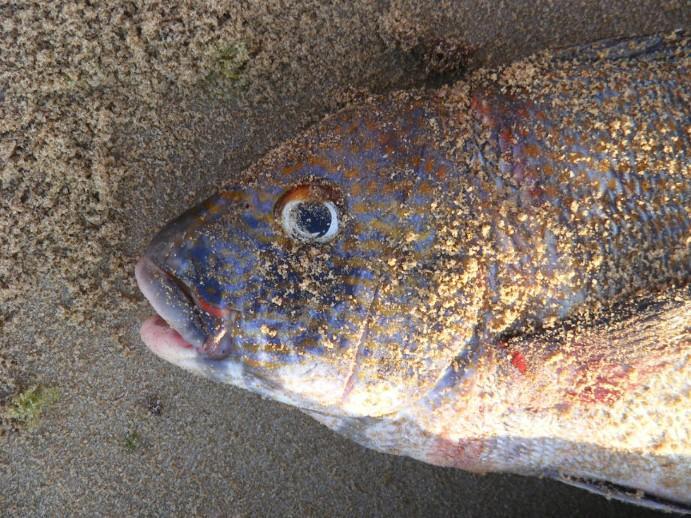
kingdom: Animalia
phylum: Chordata
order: Perciformes
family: Haemulidae
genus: Plectorhinchus
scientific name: Plectorhinchus flavomaculatus
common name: Netted sweetlips
